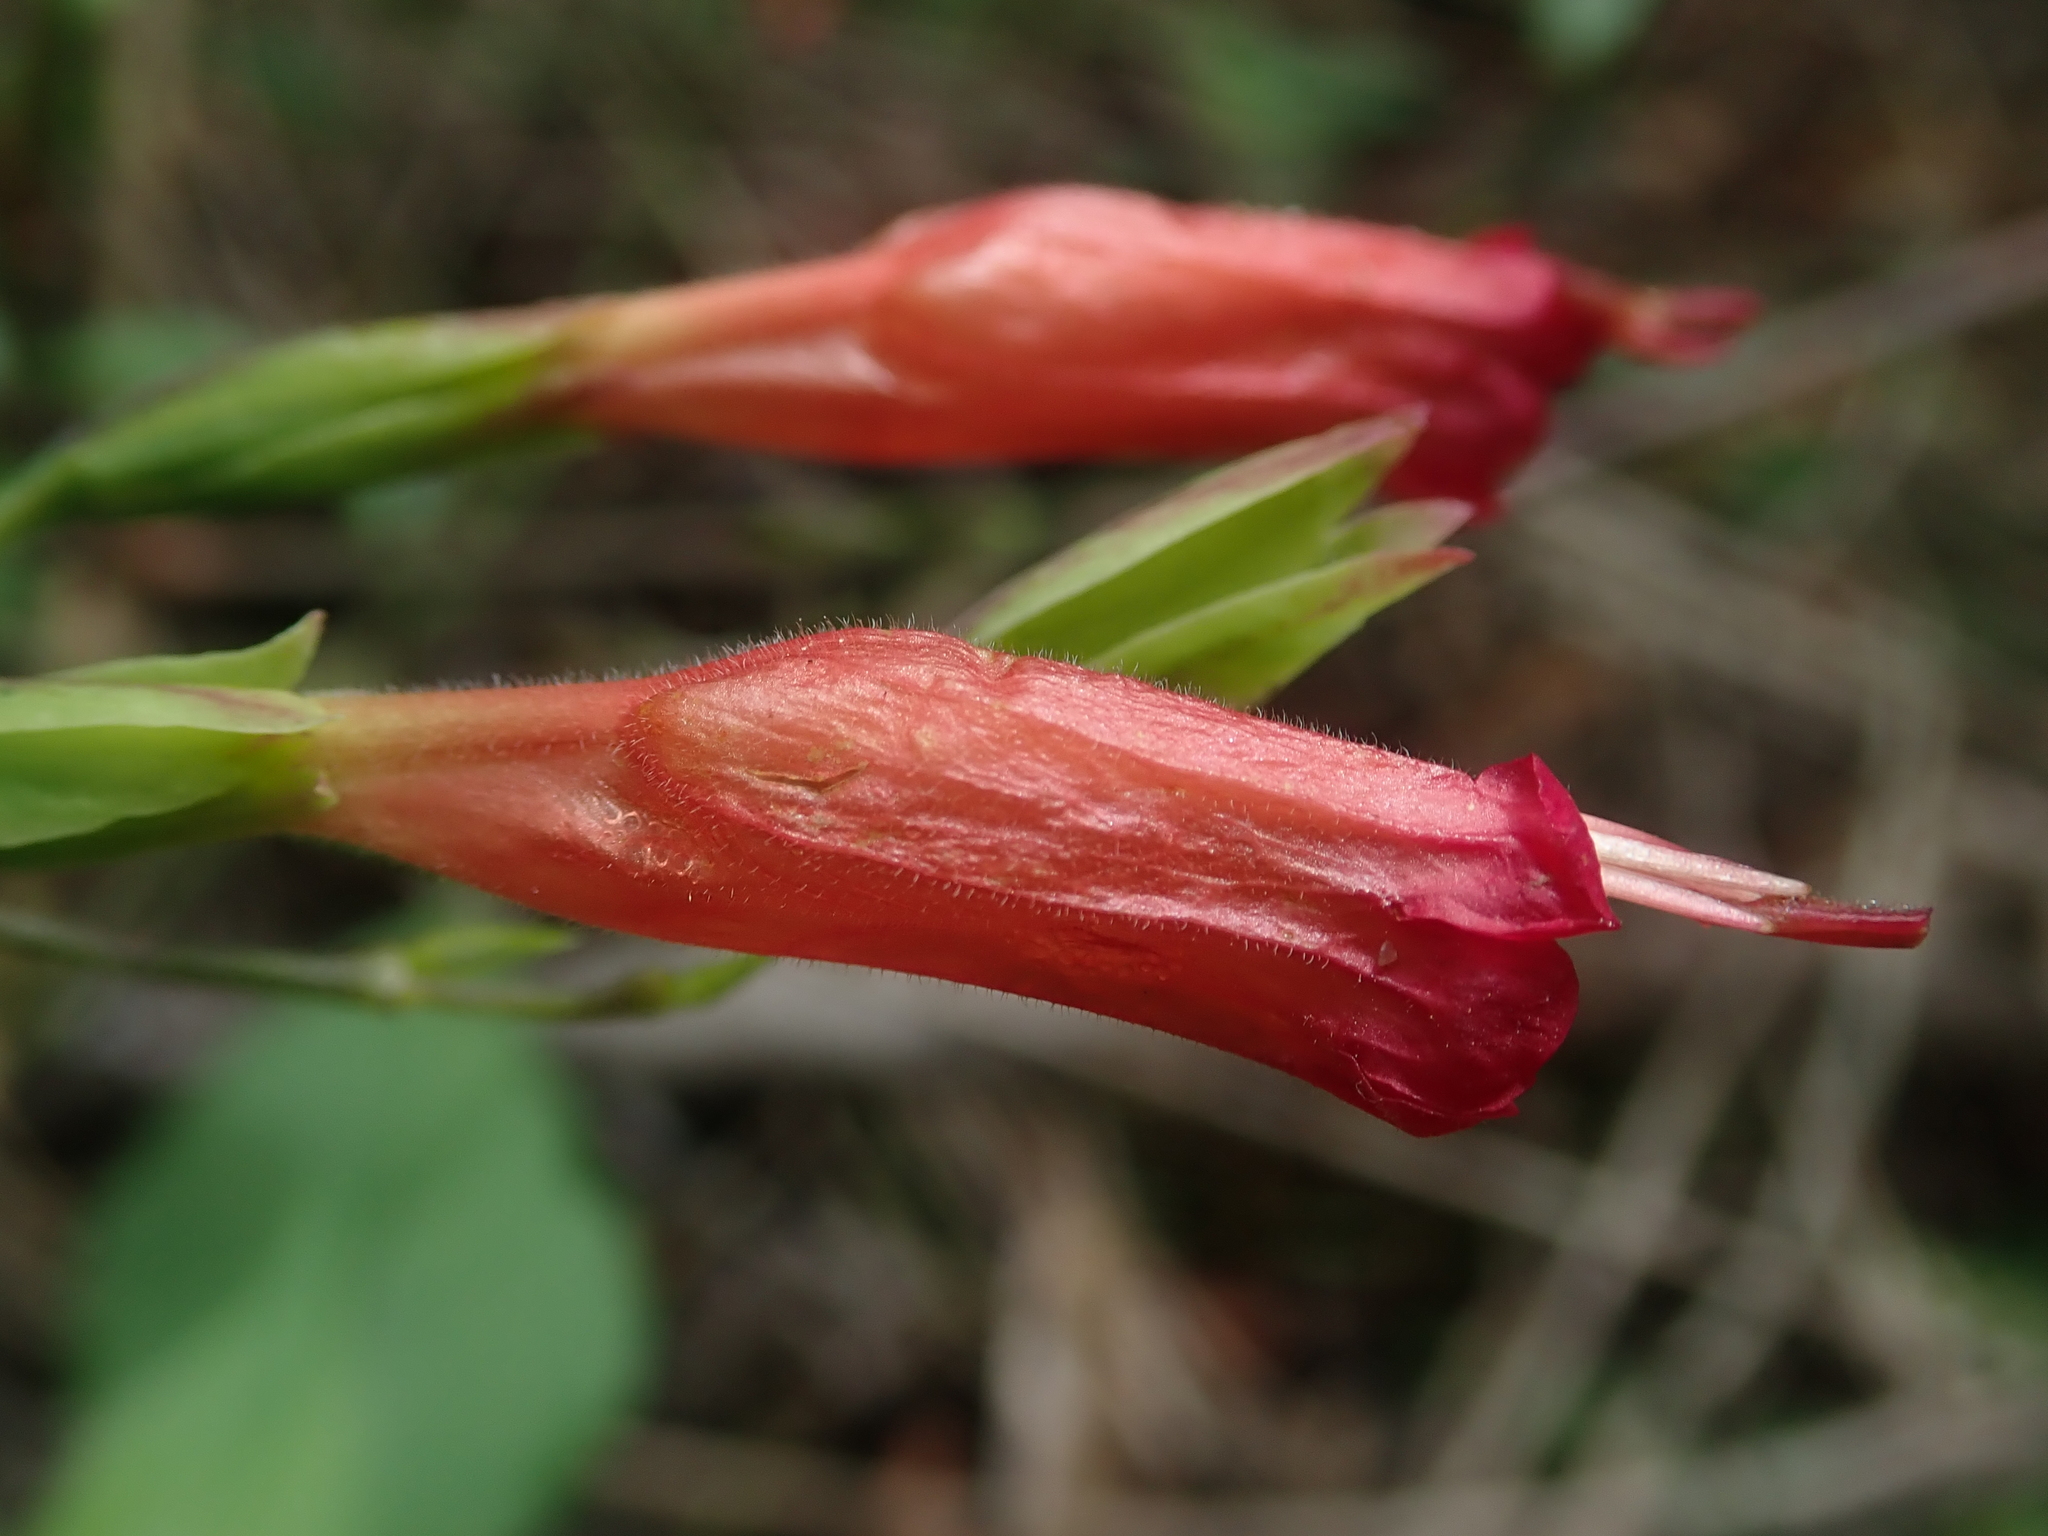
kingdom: Plantae
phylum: Tracheophyta
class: Magnoliopsida
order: Lamiales
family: Acanthaceae
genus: Ruellia
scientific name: Ruellia longipedunculata
